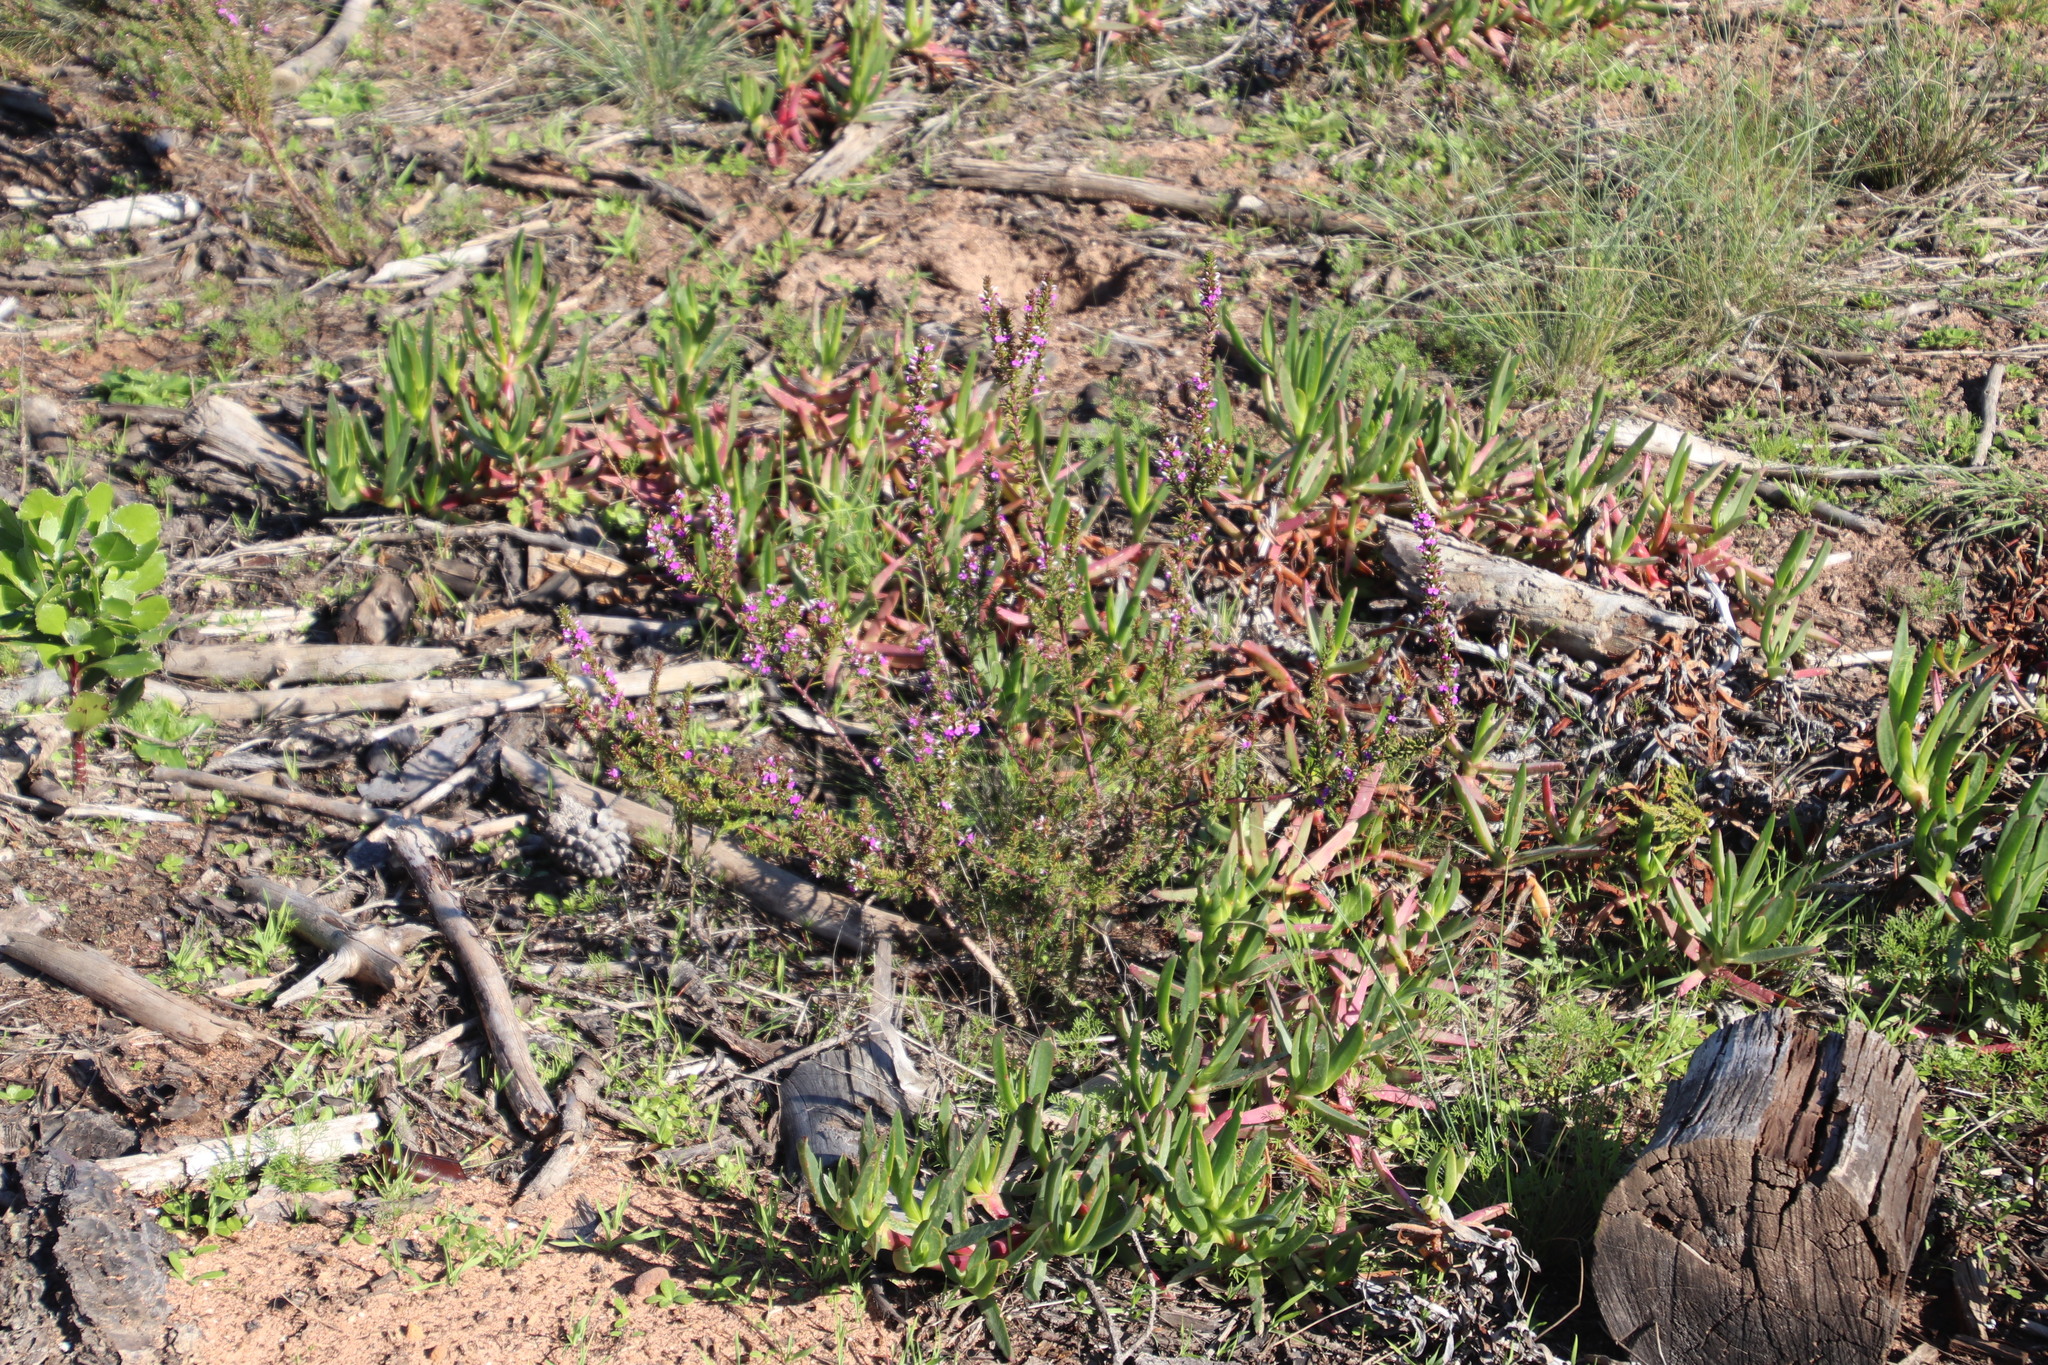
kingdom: Plantae
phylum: Tracheophyta
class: Magnoliopsida
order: Fabales
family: Polygalaceae
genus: Muraltia
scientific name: Muraltia heisteria
